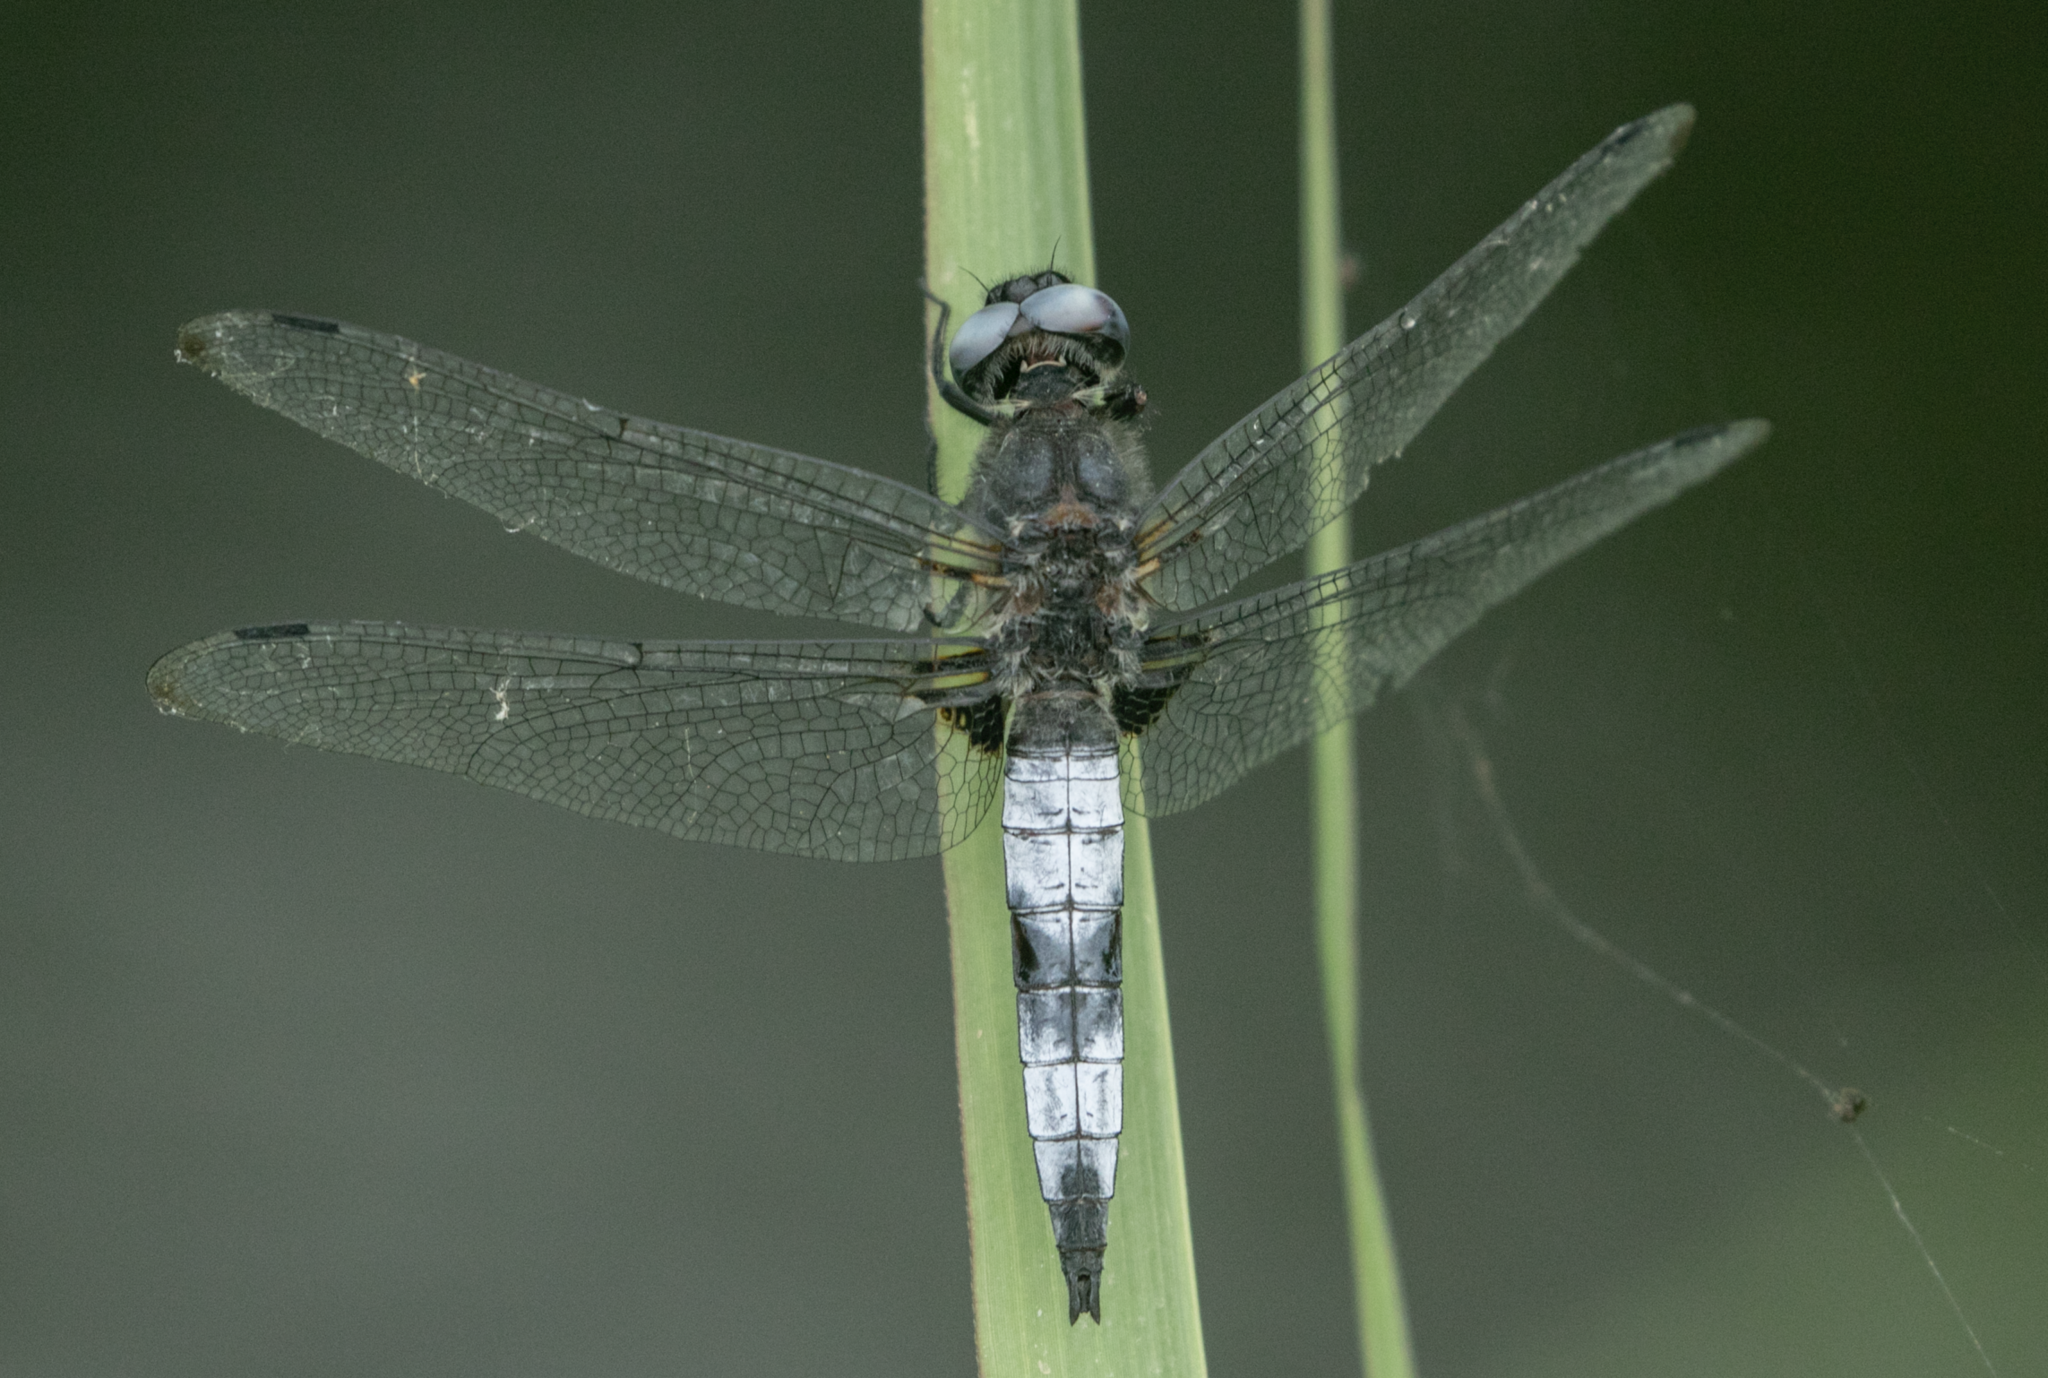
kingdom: Animalia
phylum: Arthropoda
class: Insecta
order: Odonata
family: Libellulidae
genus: Libellula
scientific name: Libellula fulva
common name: Blue chaser
